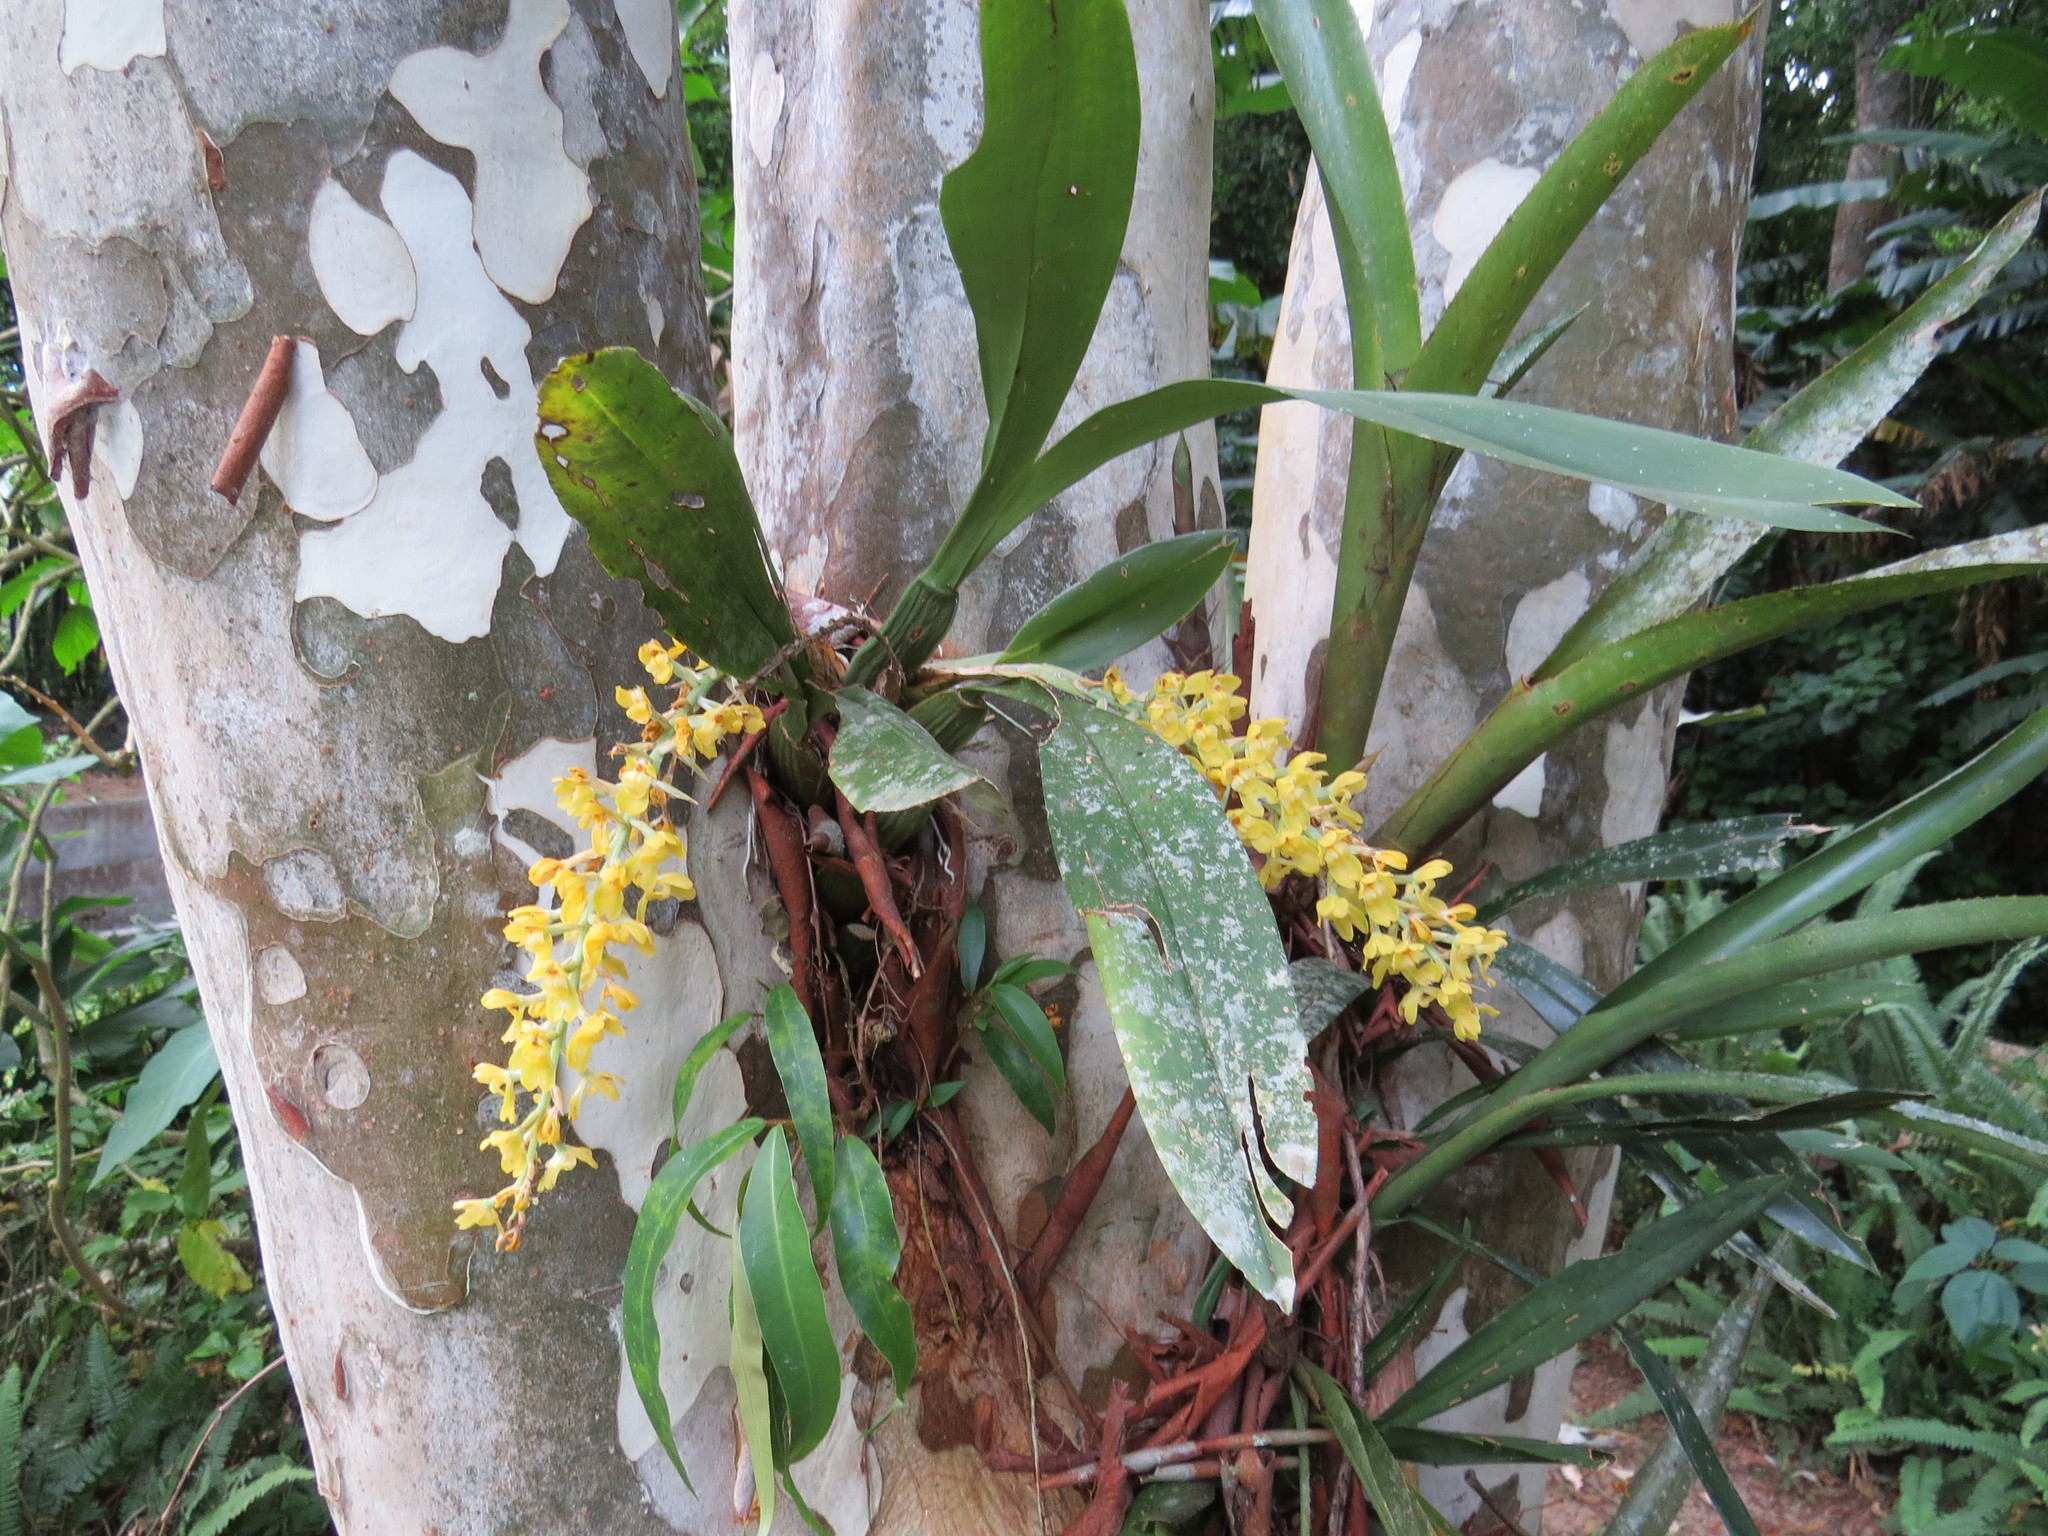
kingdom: Plantae
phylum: Tracheophyta
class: Liliopsida
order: Asparagales
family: Orchidaceae
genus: Gomesa
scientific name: Gomesa planifolia
